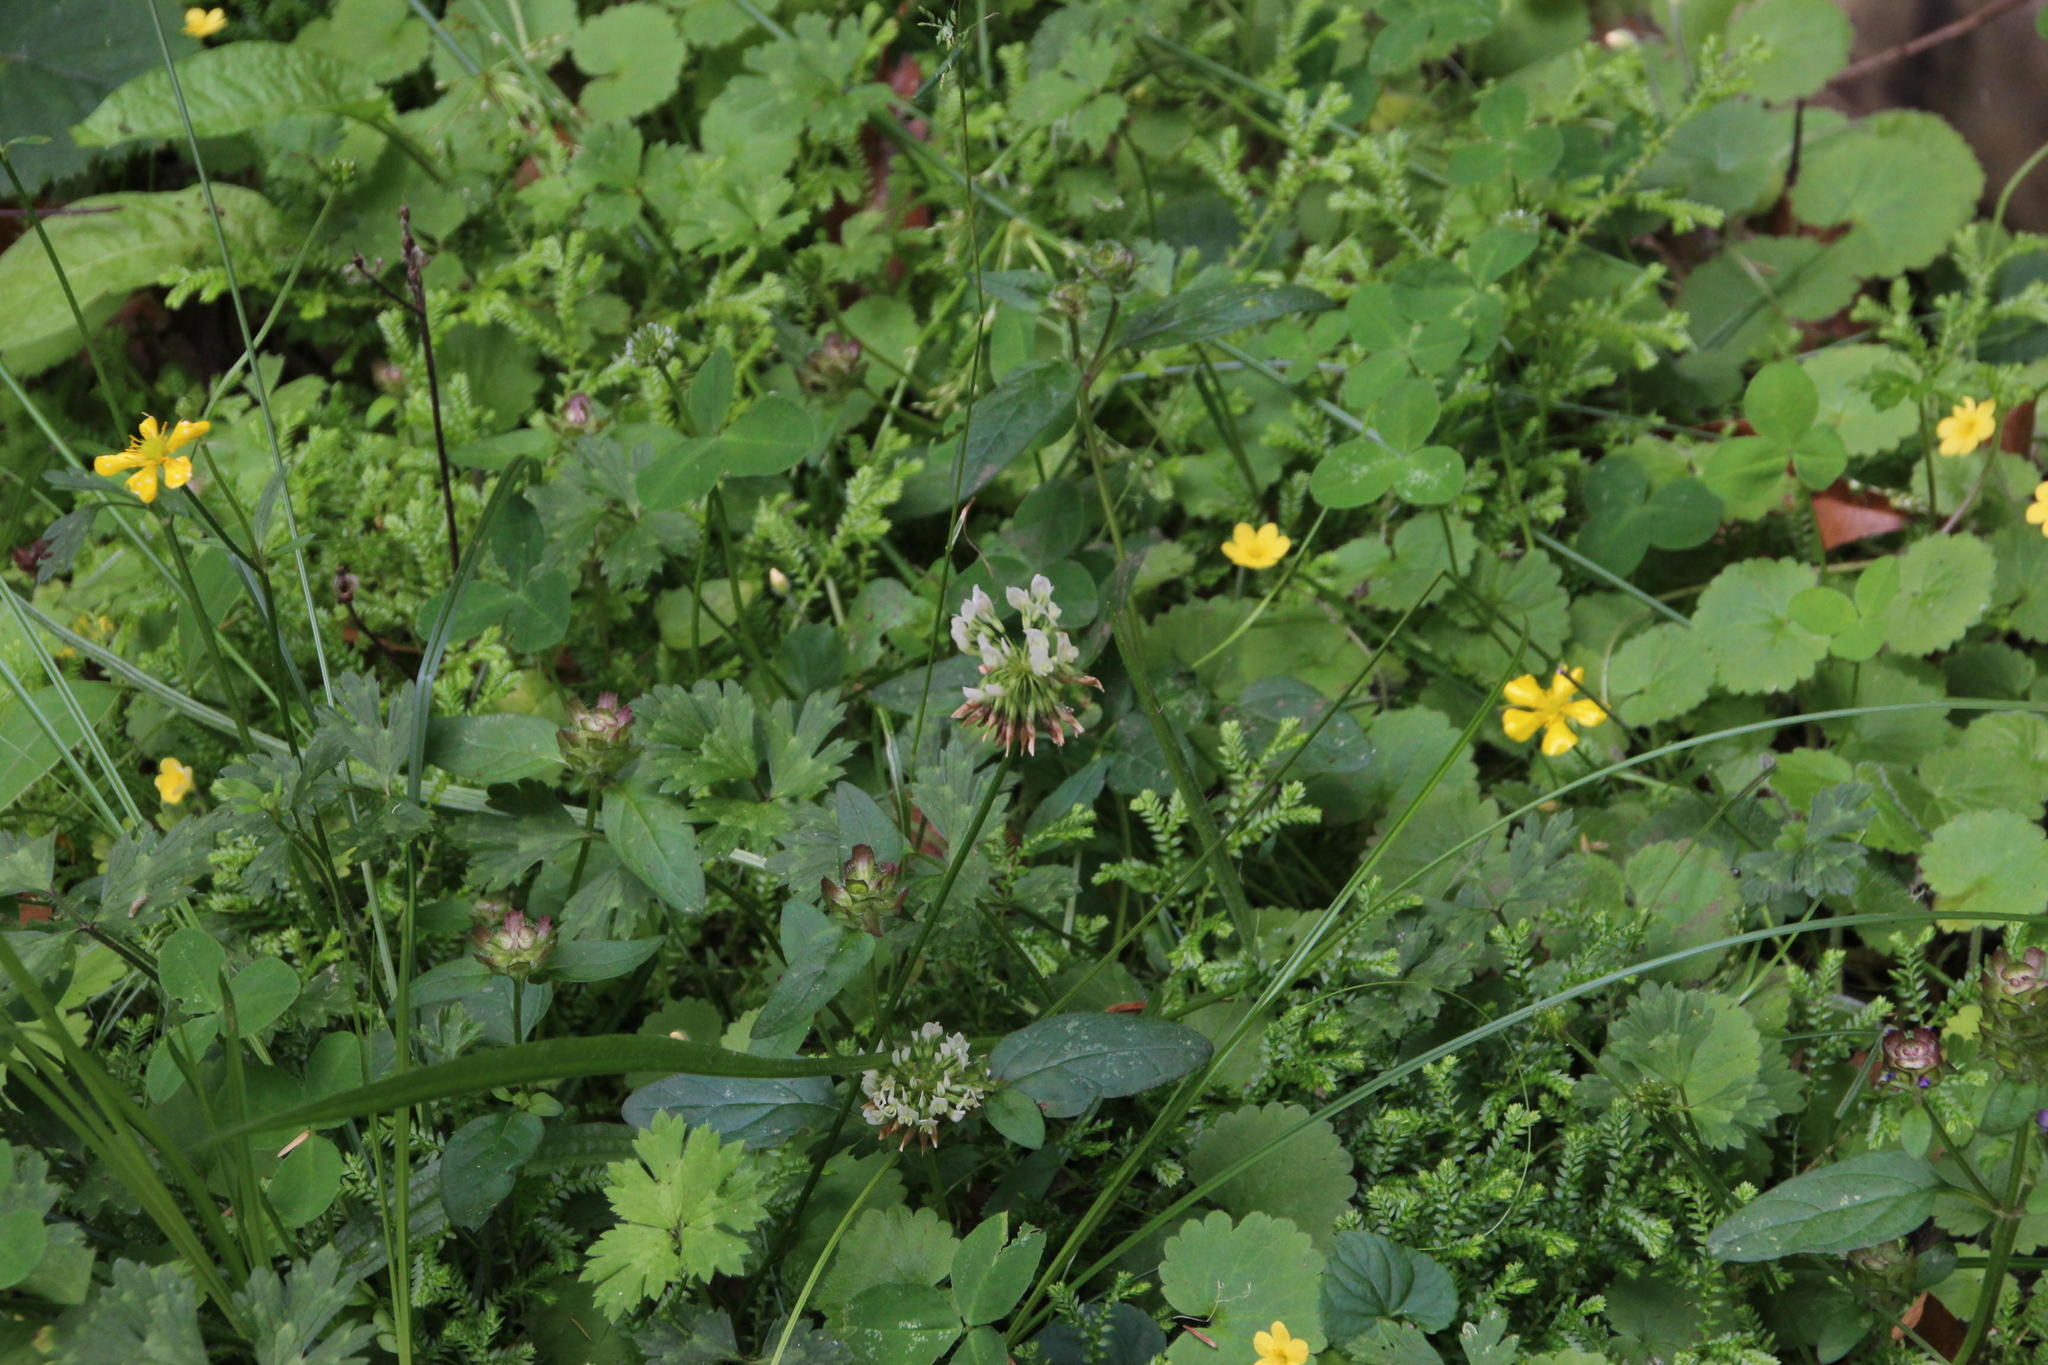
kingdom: Plantae
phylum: Tracheophyta
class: Magnoliopsida
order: Fabales
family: Fabaceae
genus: Trifolium
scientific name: Trifolium repens
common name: White clover
